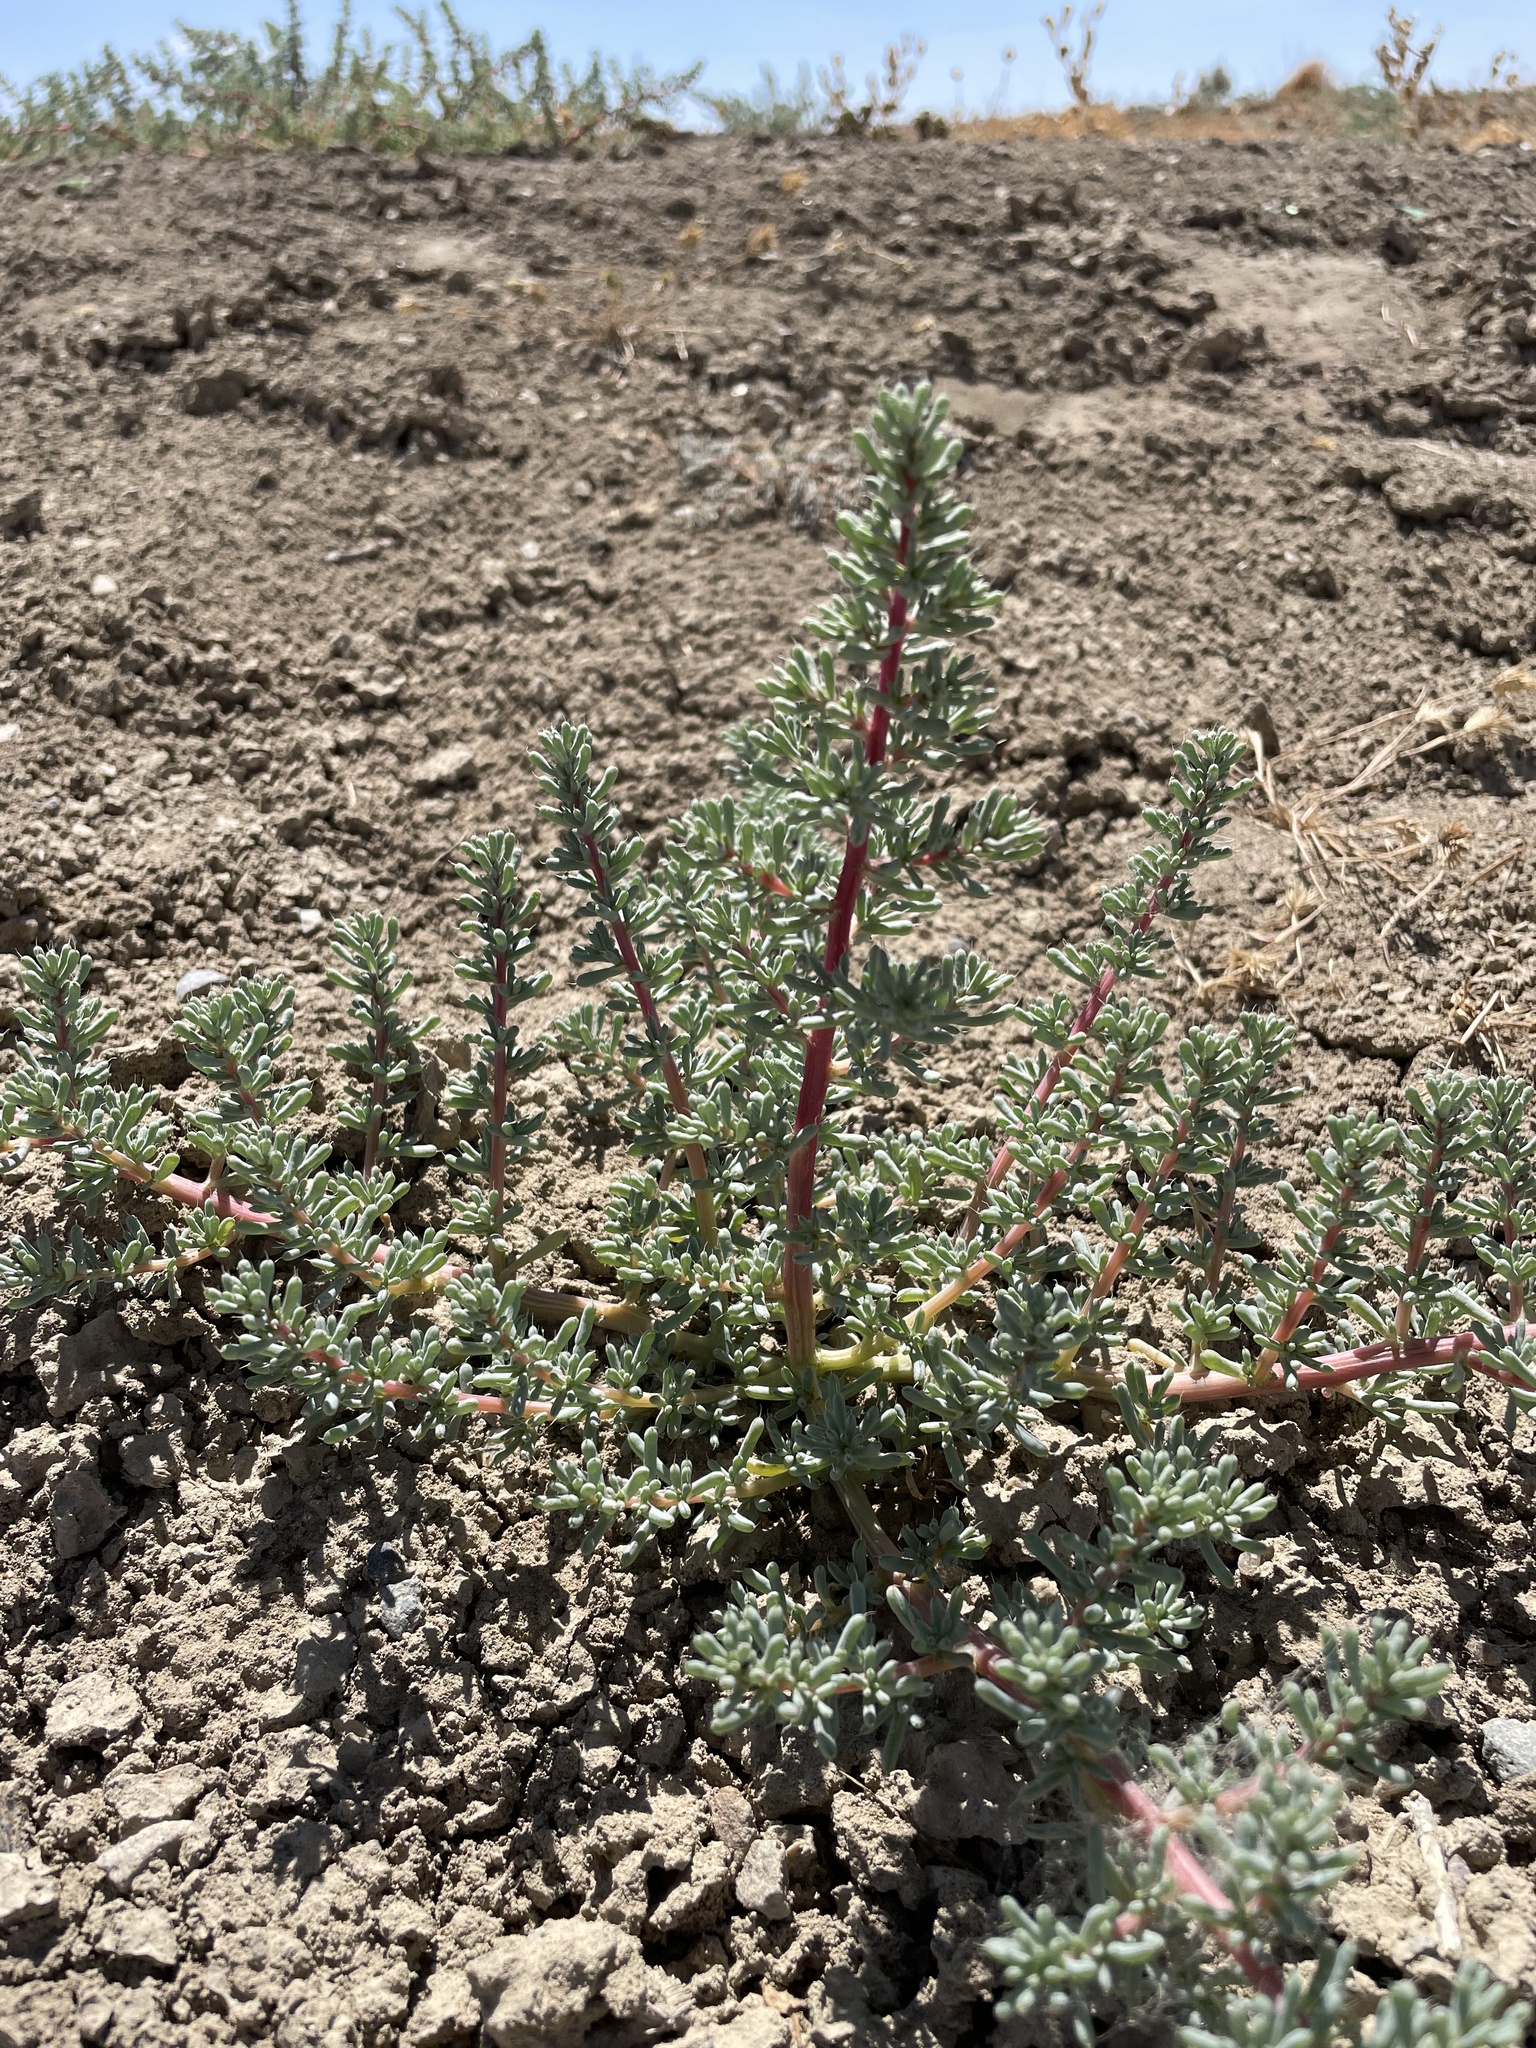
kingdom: Plantae
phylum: Tracheophyta
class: Magnoliopsida
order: Caryophyllales
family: Amaranthaceae
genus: Halogeton
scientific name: Halogeton glomeratus
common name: Saltlover
